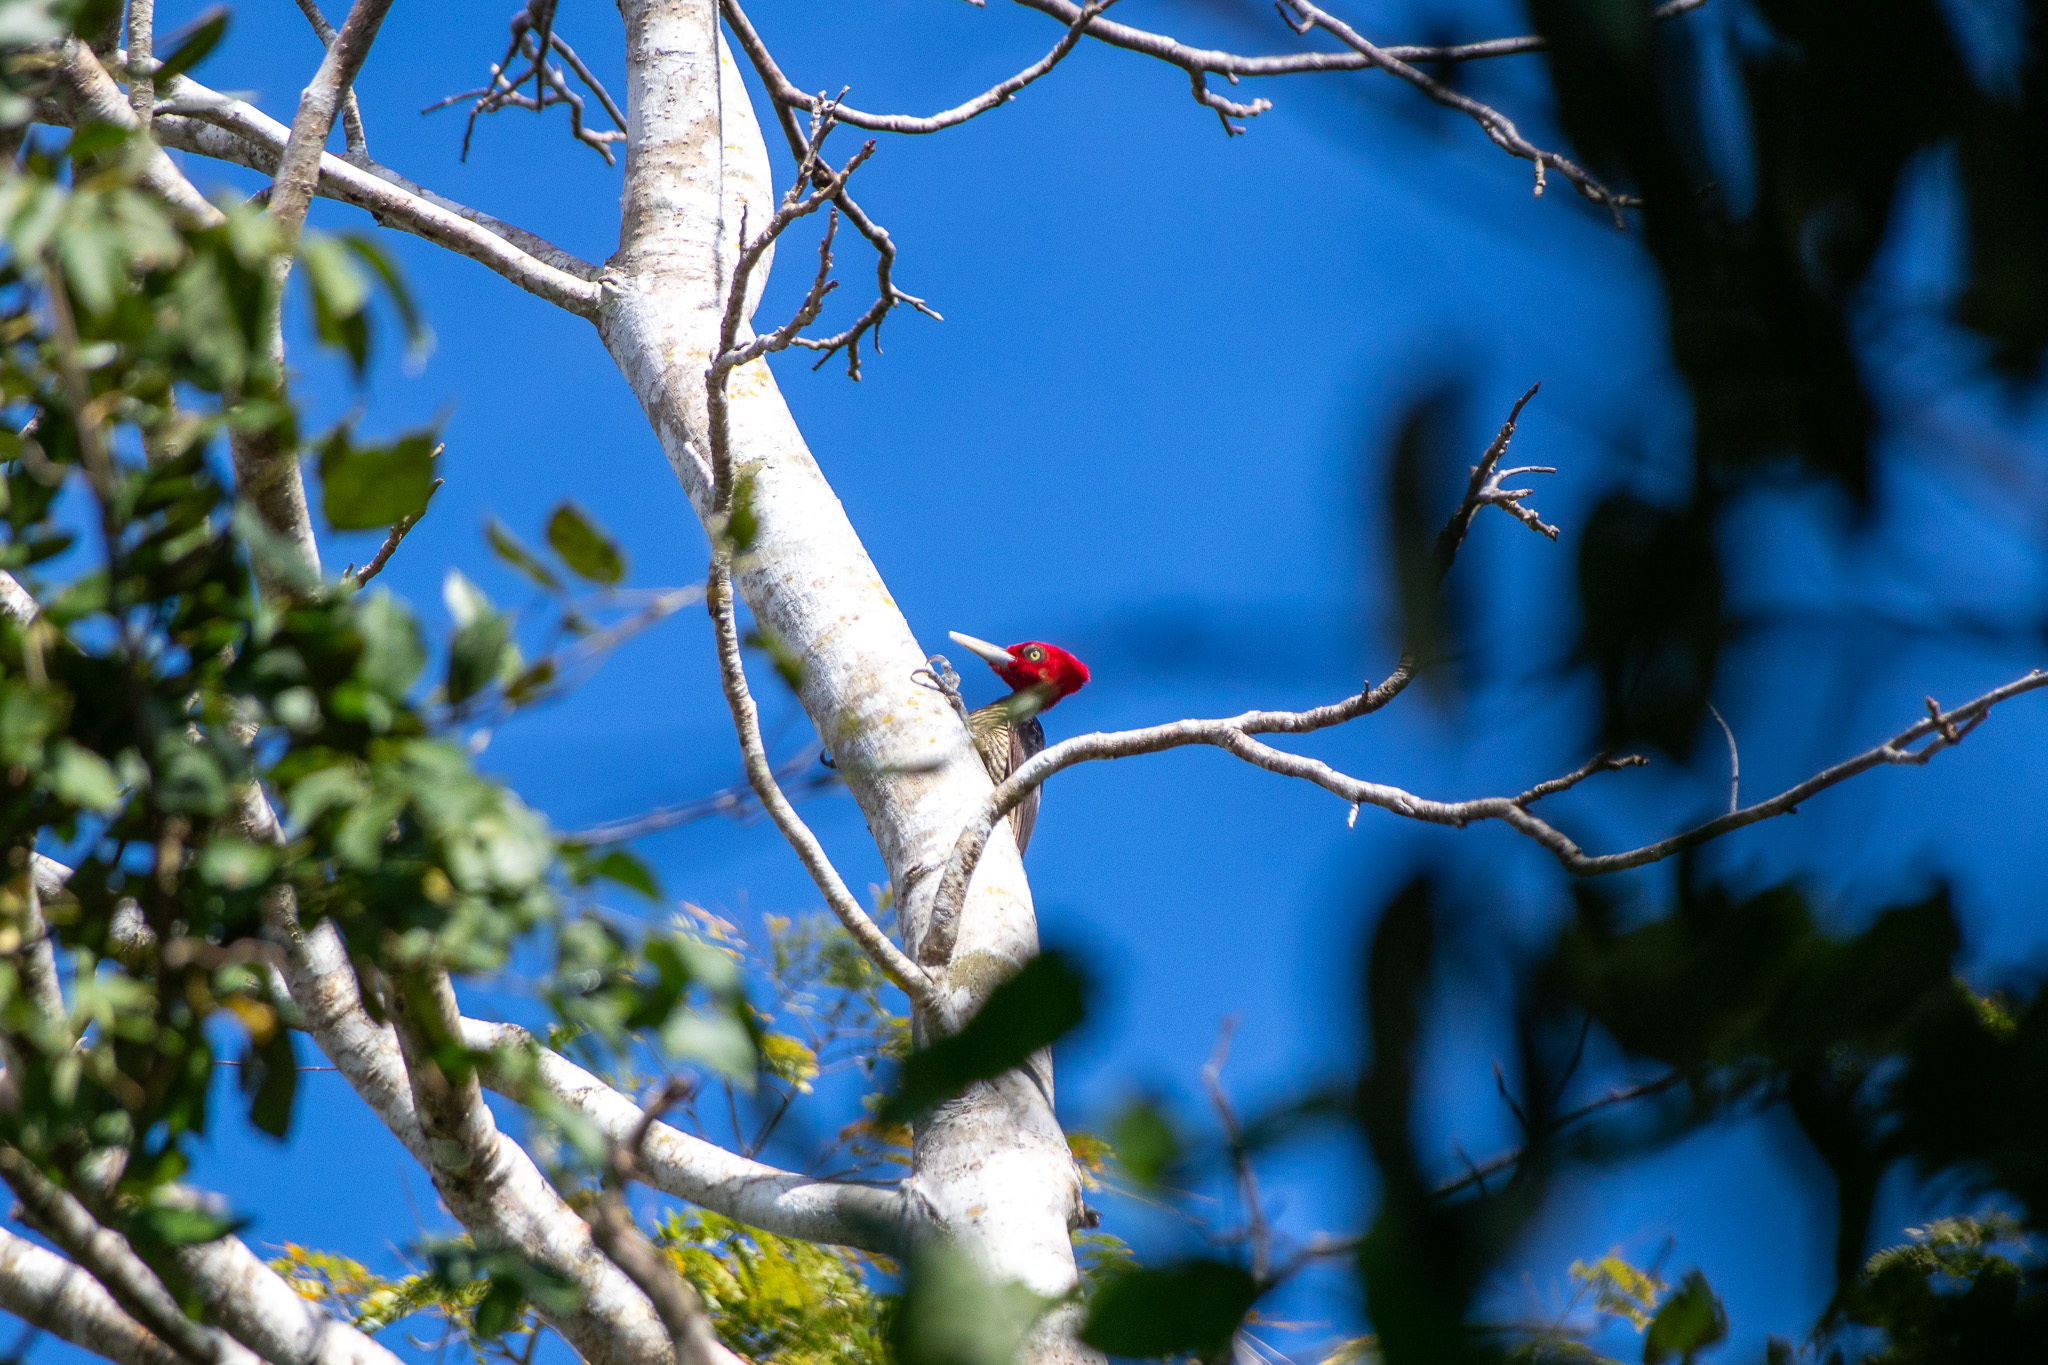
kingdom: Animalia
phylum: Chordata
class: Aves
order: Piciformes
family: Picidae
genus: Campephilus
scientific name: Campephilus guatemalensis
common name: Pale-billed woodpecker
